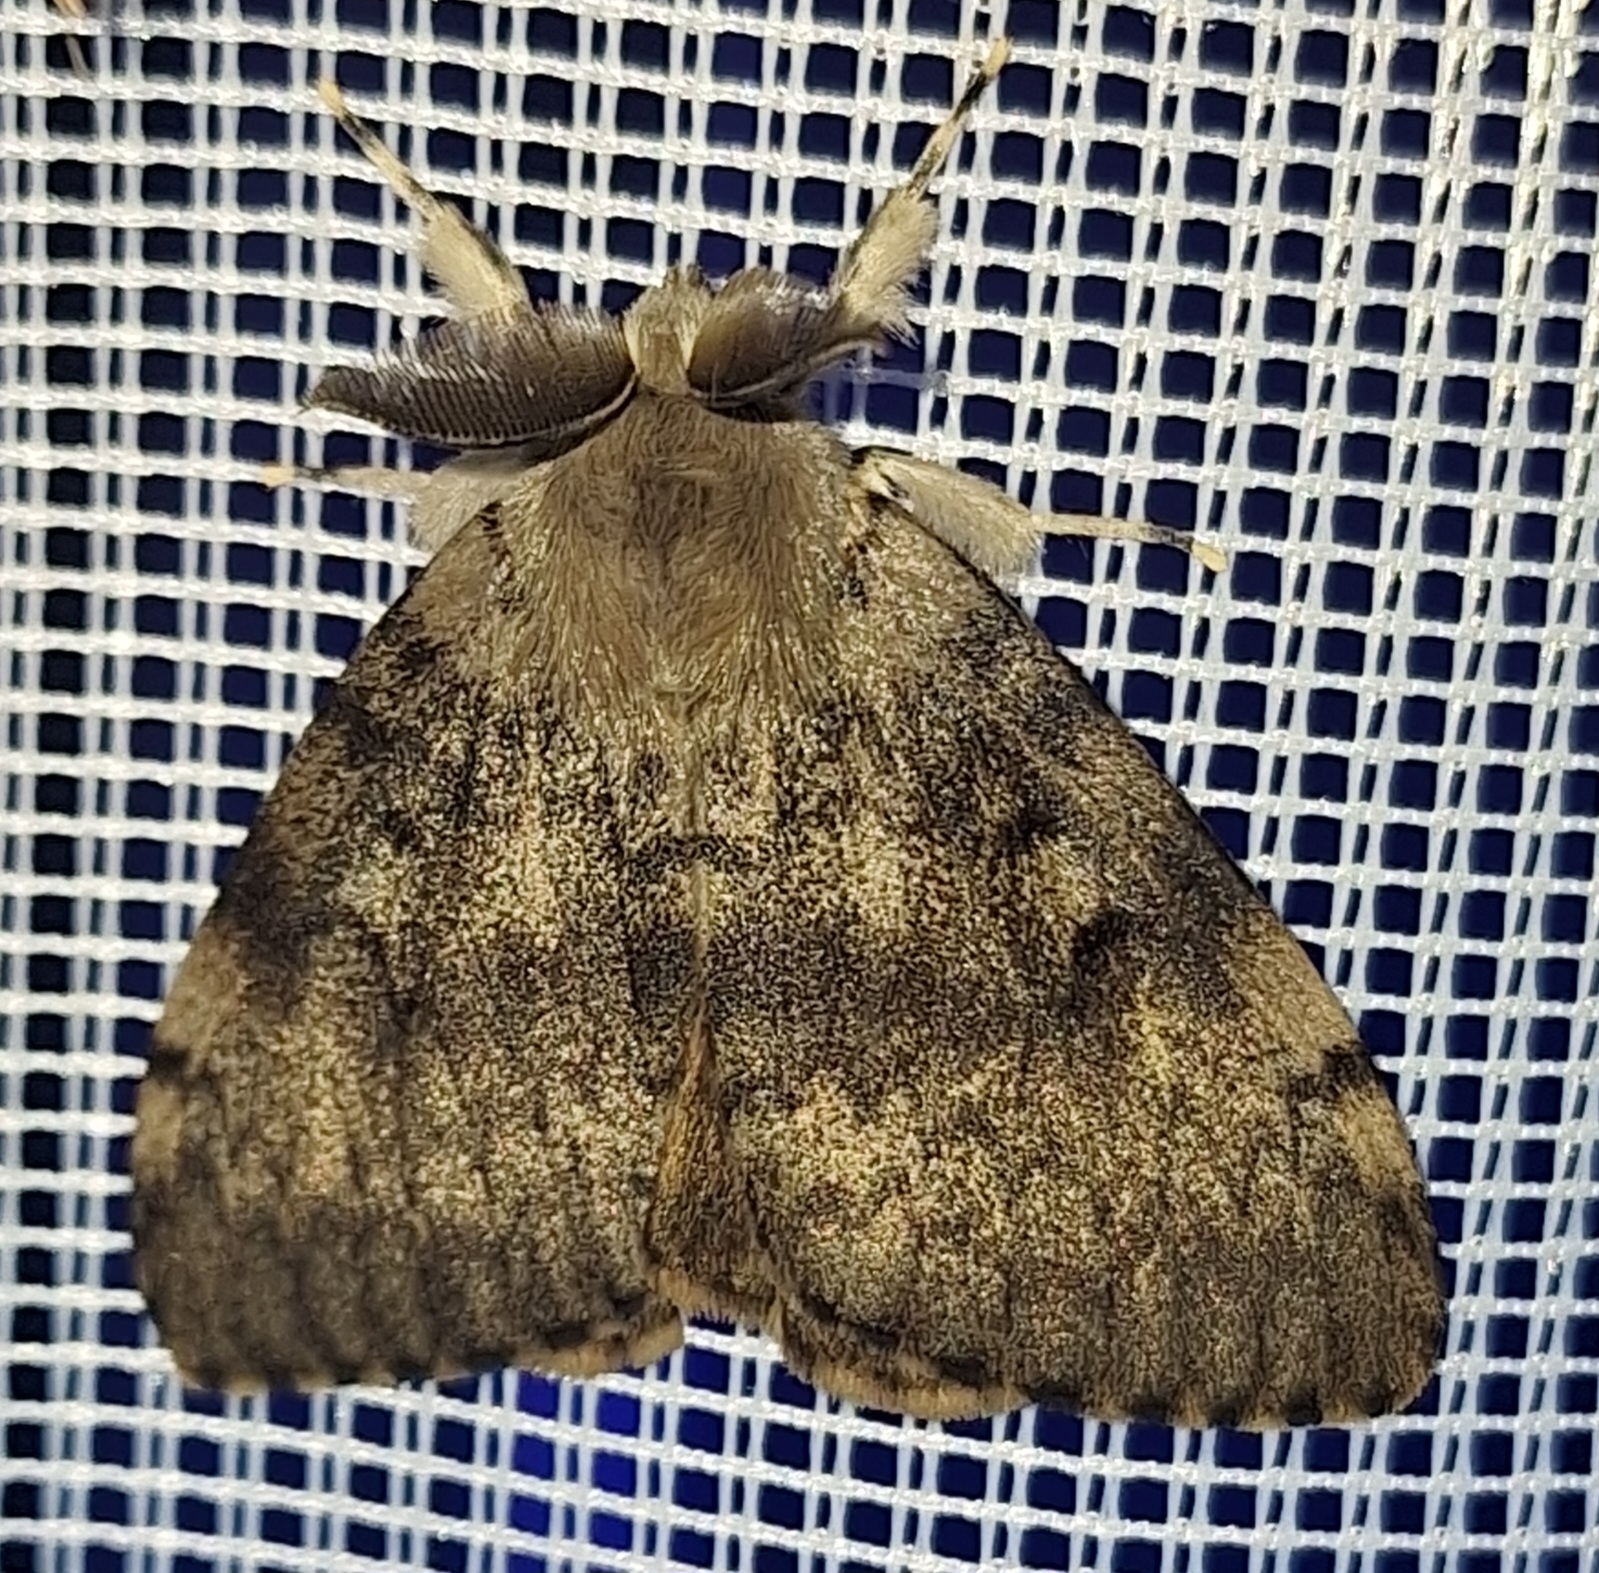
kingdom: Animalia
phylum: Arthropoda
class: Insecta
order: Lepidoptera
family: Erebidae
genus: Lymantria
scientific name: Lymantria dispar
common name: Gypsy moth
